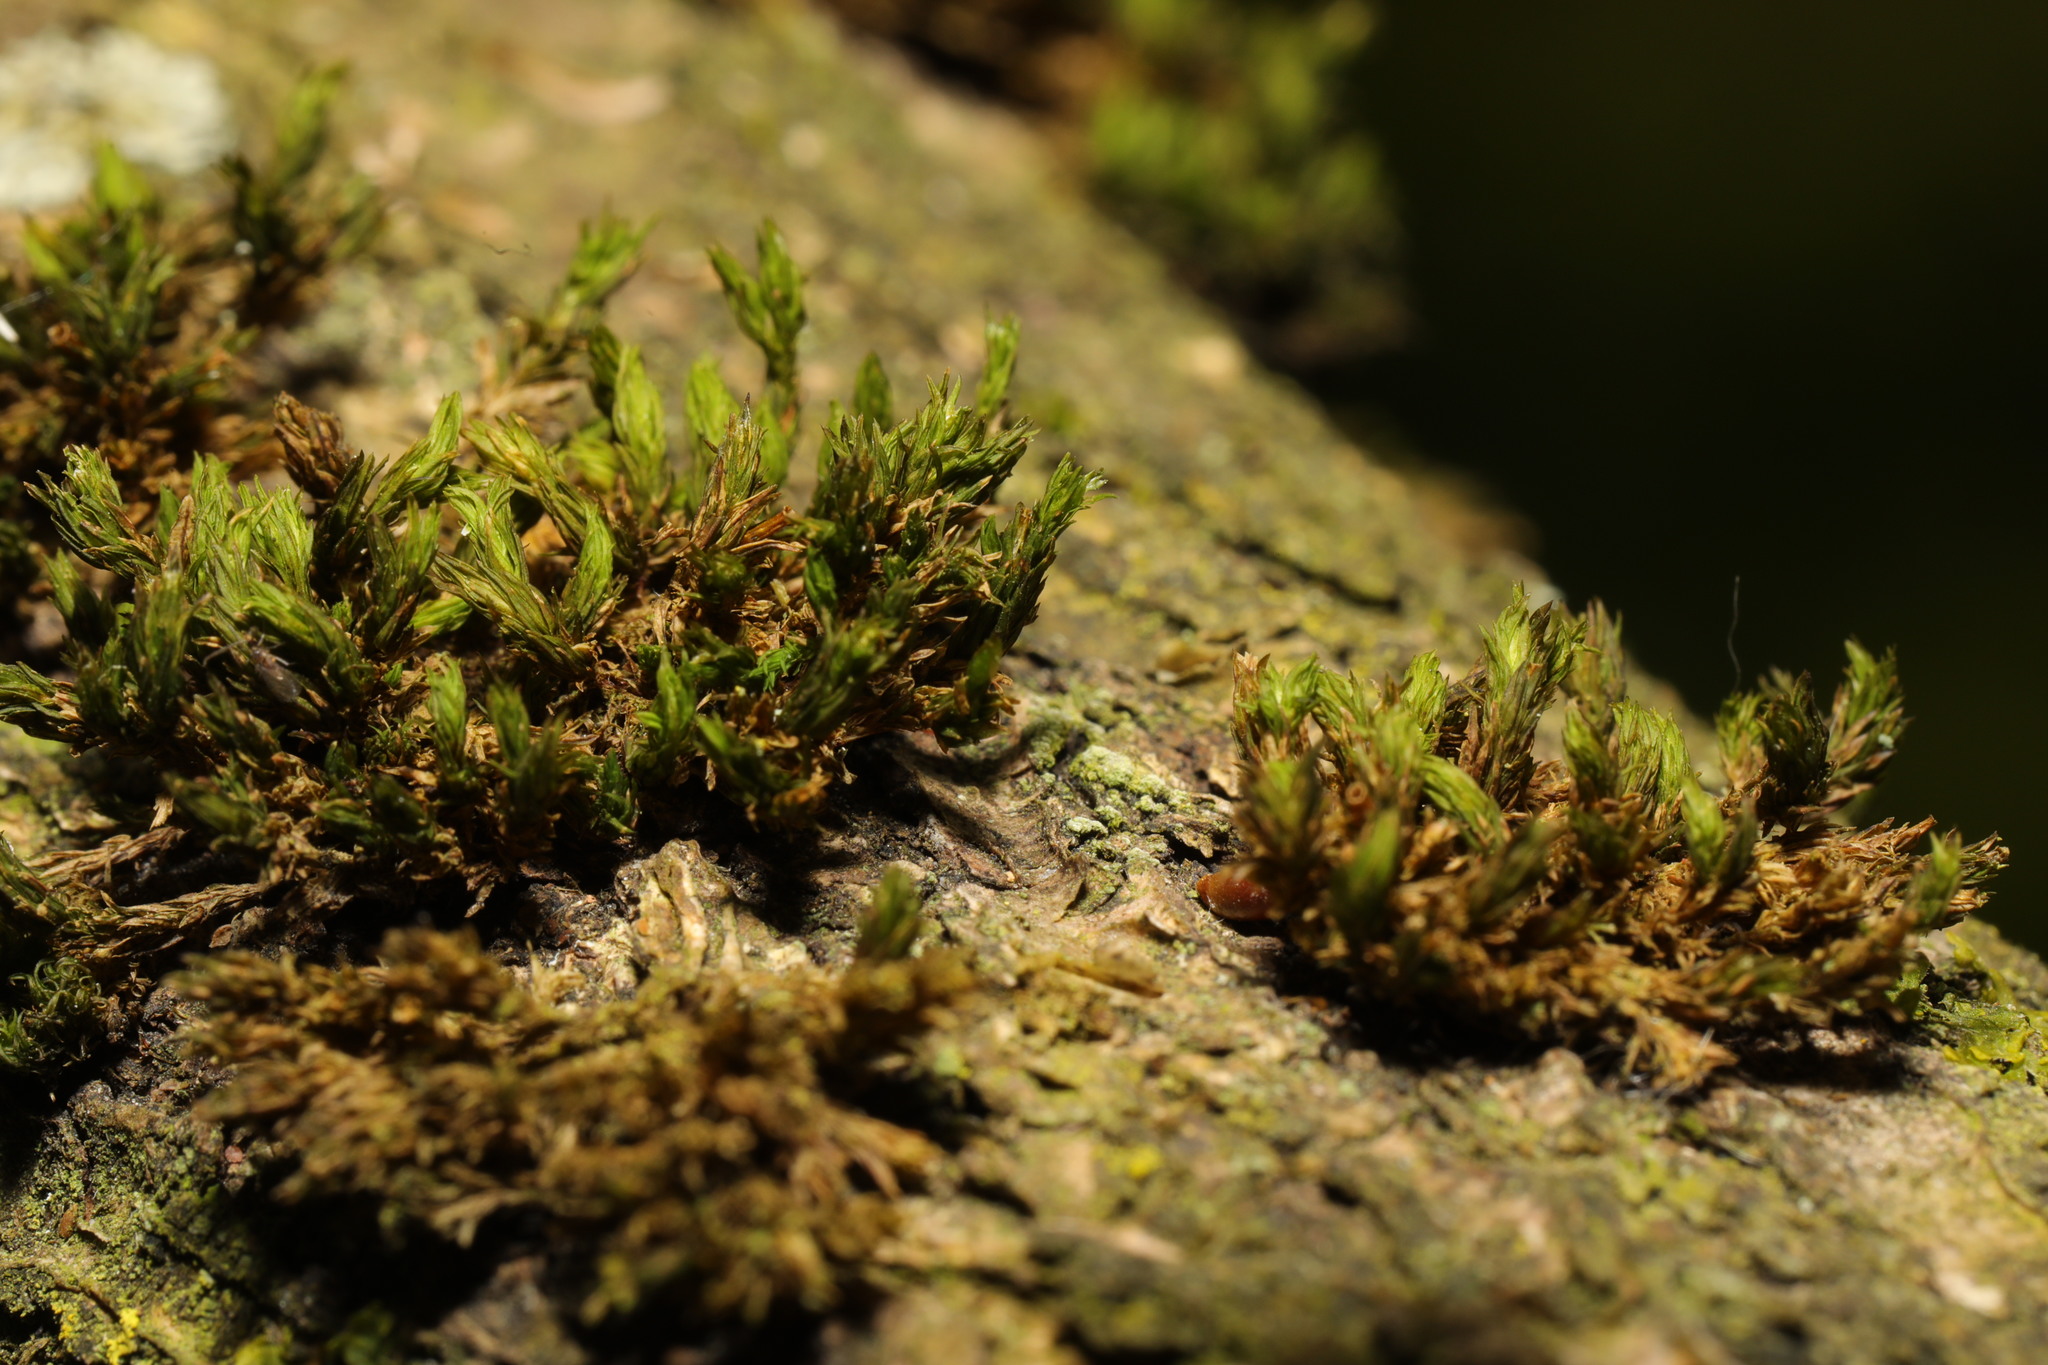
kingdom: Plantae
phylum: Bryophyta
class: Bryopsida
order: Orthotrichales
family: Orthotrichaceae
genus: Lewinskya
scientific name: Lewinskya affinis
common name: Wood bristle-moss
